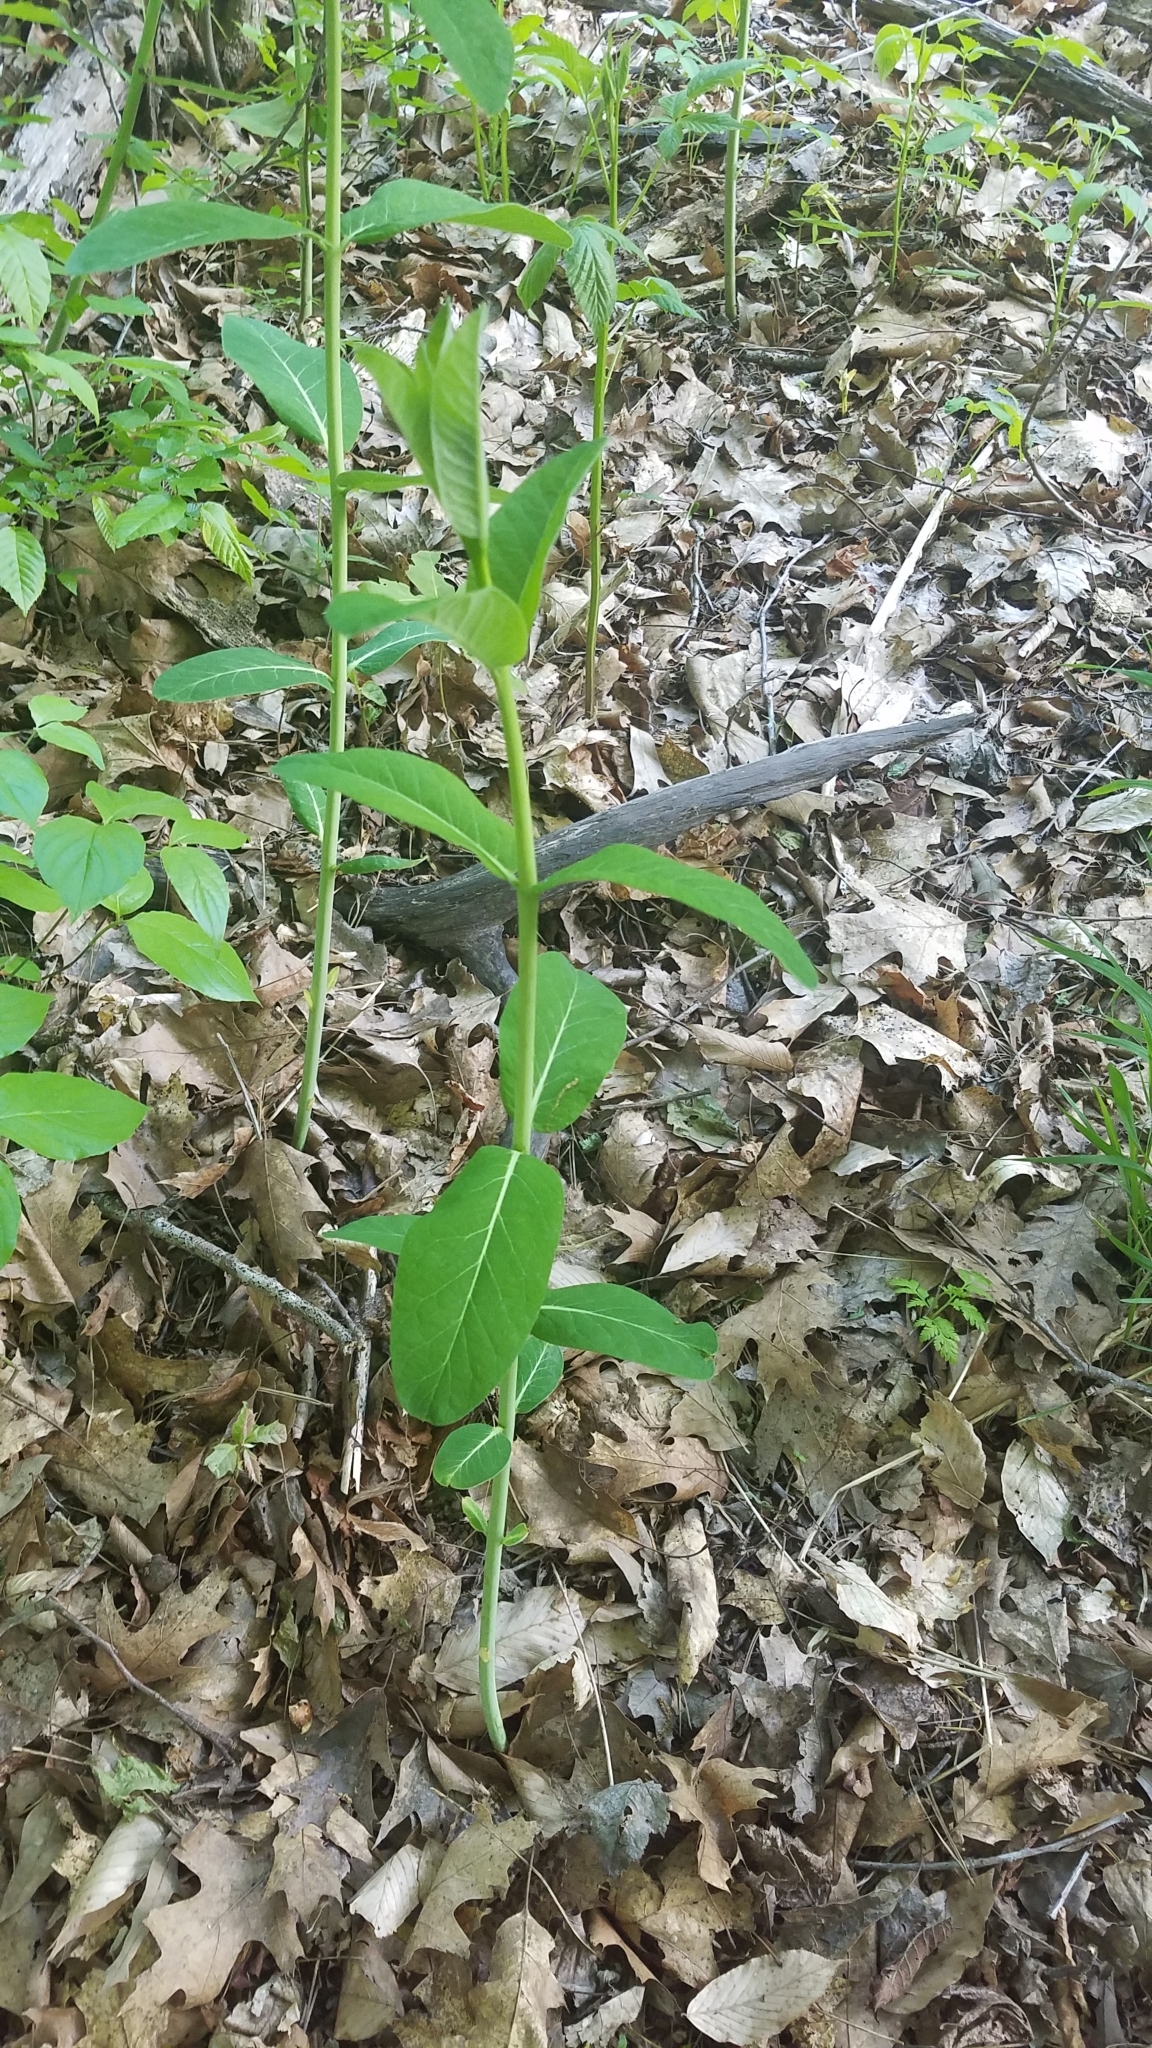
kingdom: Plantae
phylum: Tracheophyta
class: Magnoliopsida
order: Gentianales
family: Apocynaceae
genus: Apocynum
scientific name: Apocynum cannabinum
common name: Hemp dogbane
